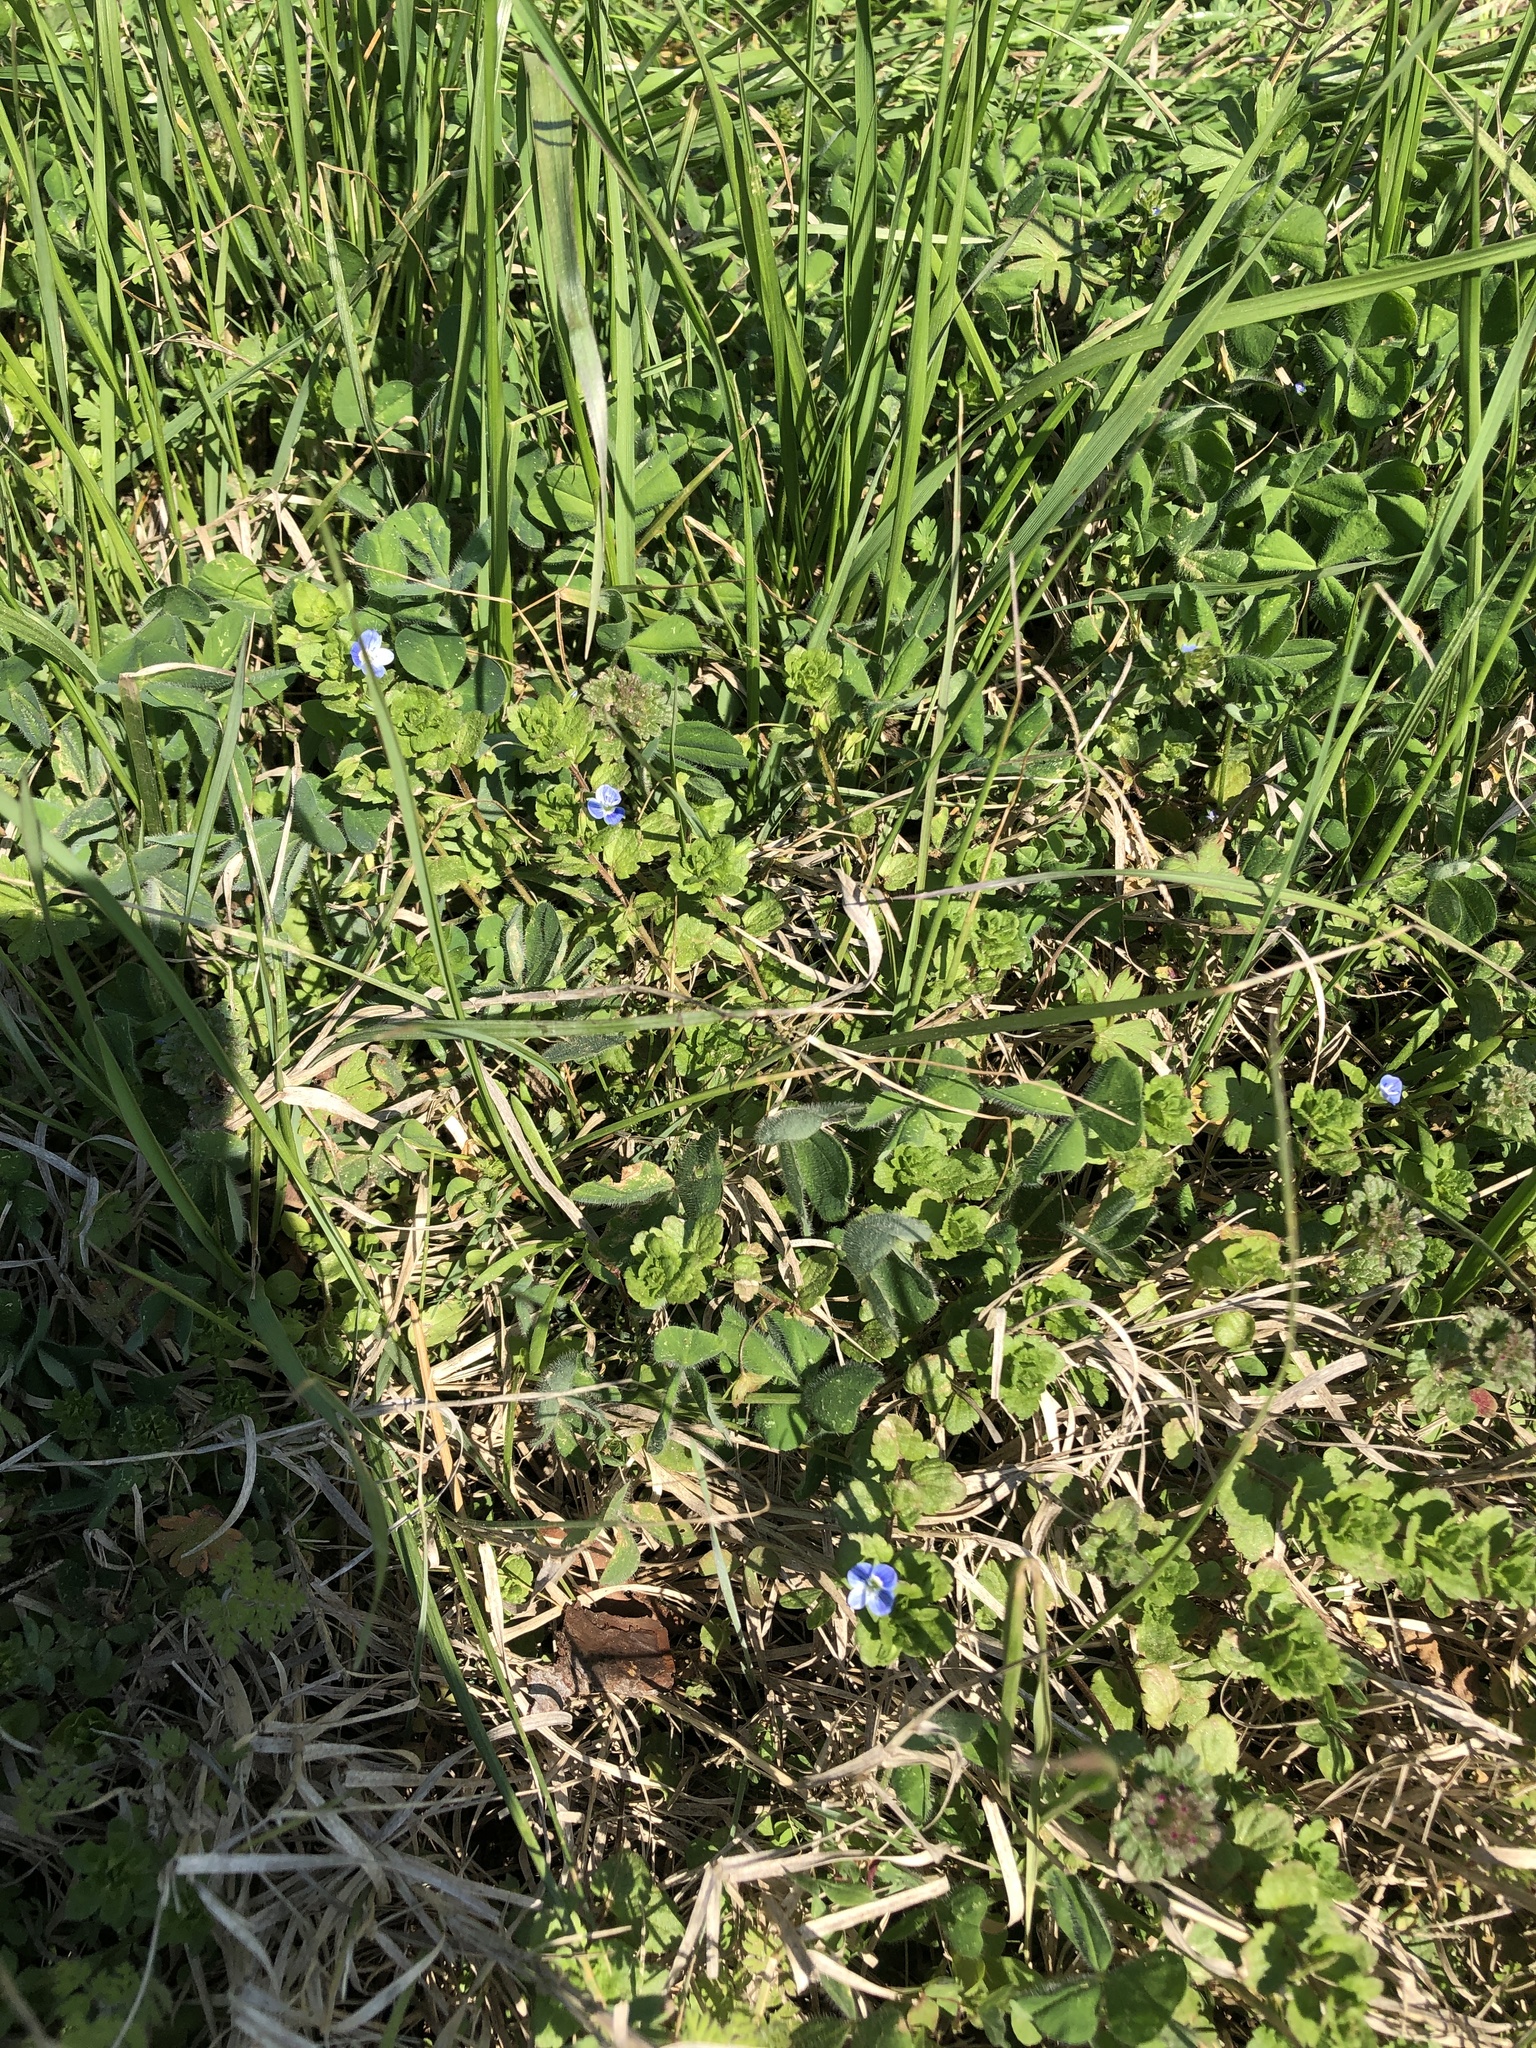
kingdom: Plantae
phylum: Tracheophyta
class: Magnoliopsida
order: Lamiales
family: Plantaginaceae
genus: Veronica
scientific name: Veronica persica
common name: Common field-speedwell
